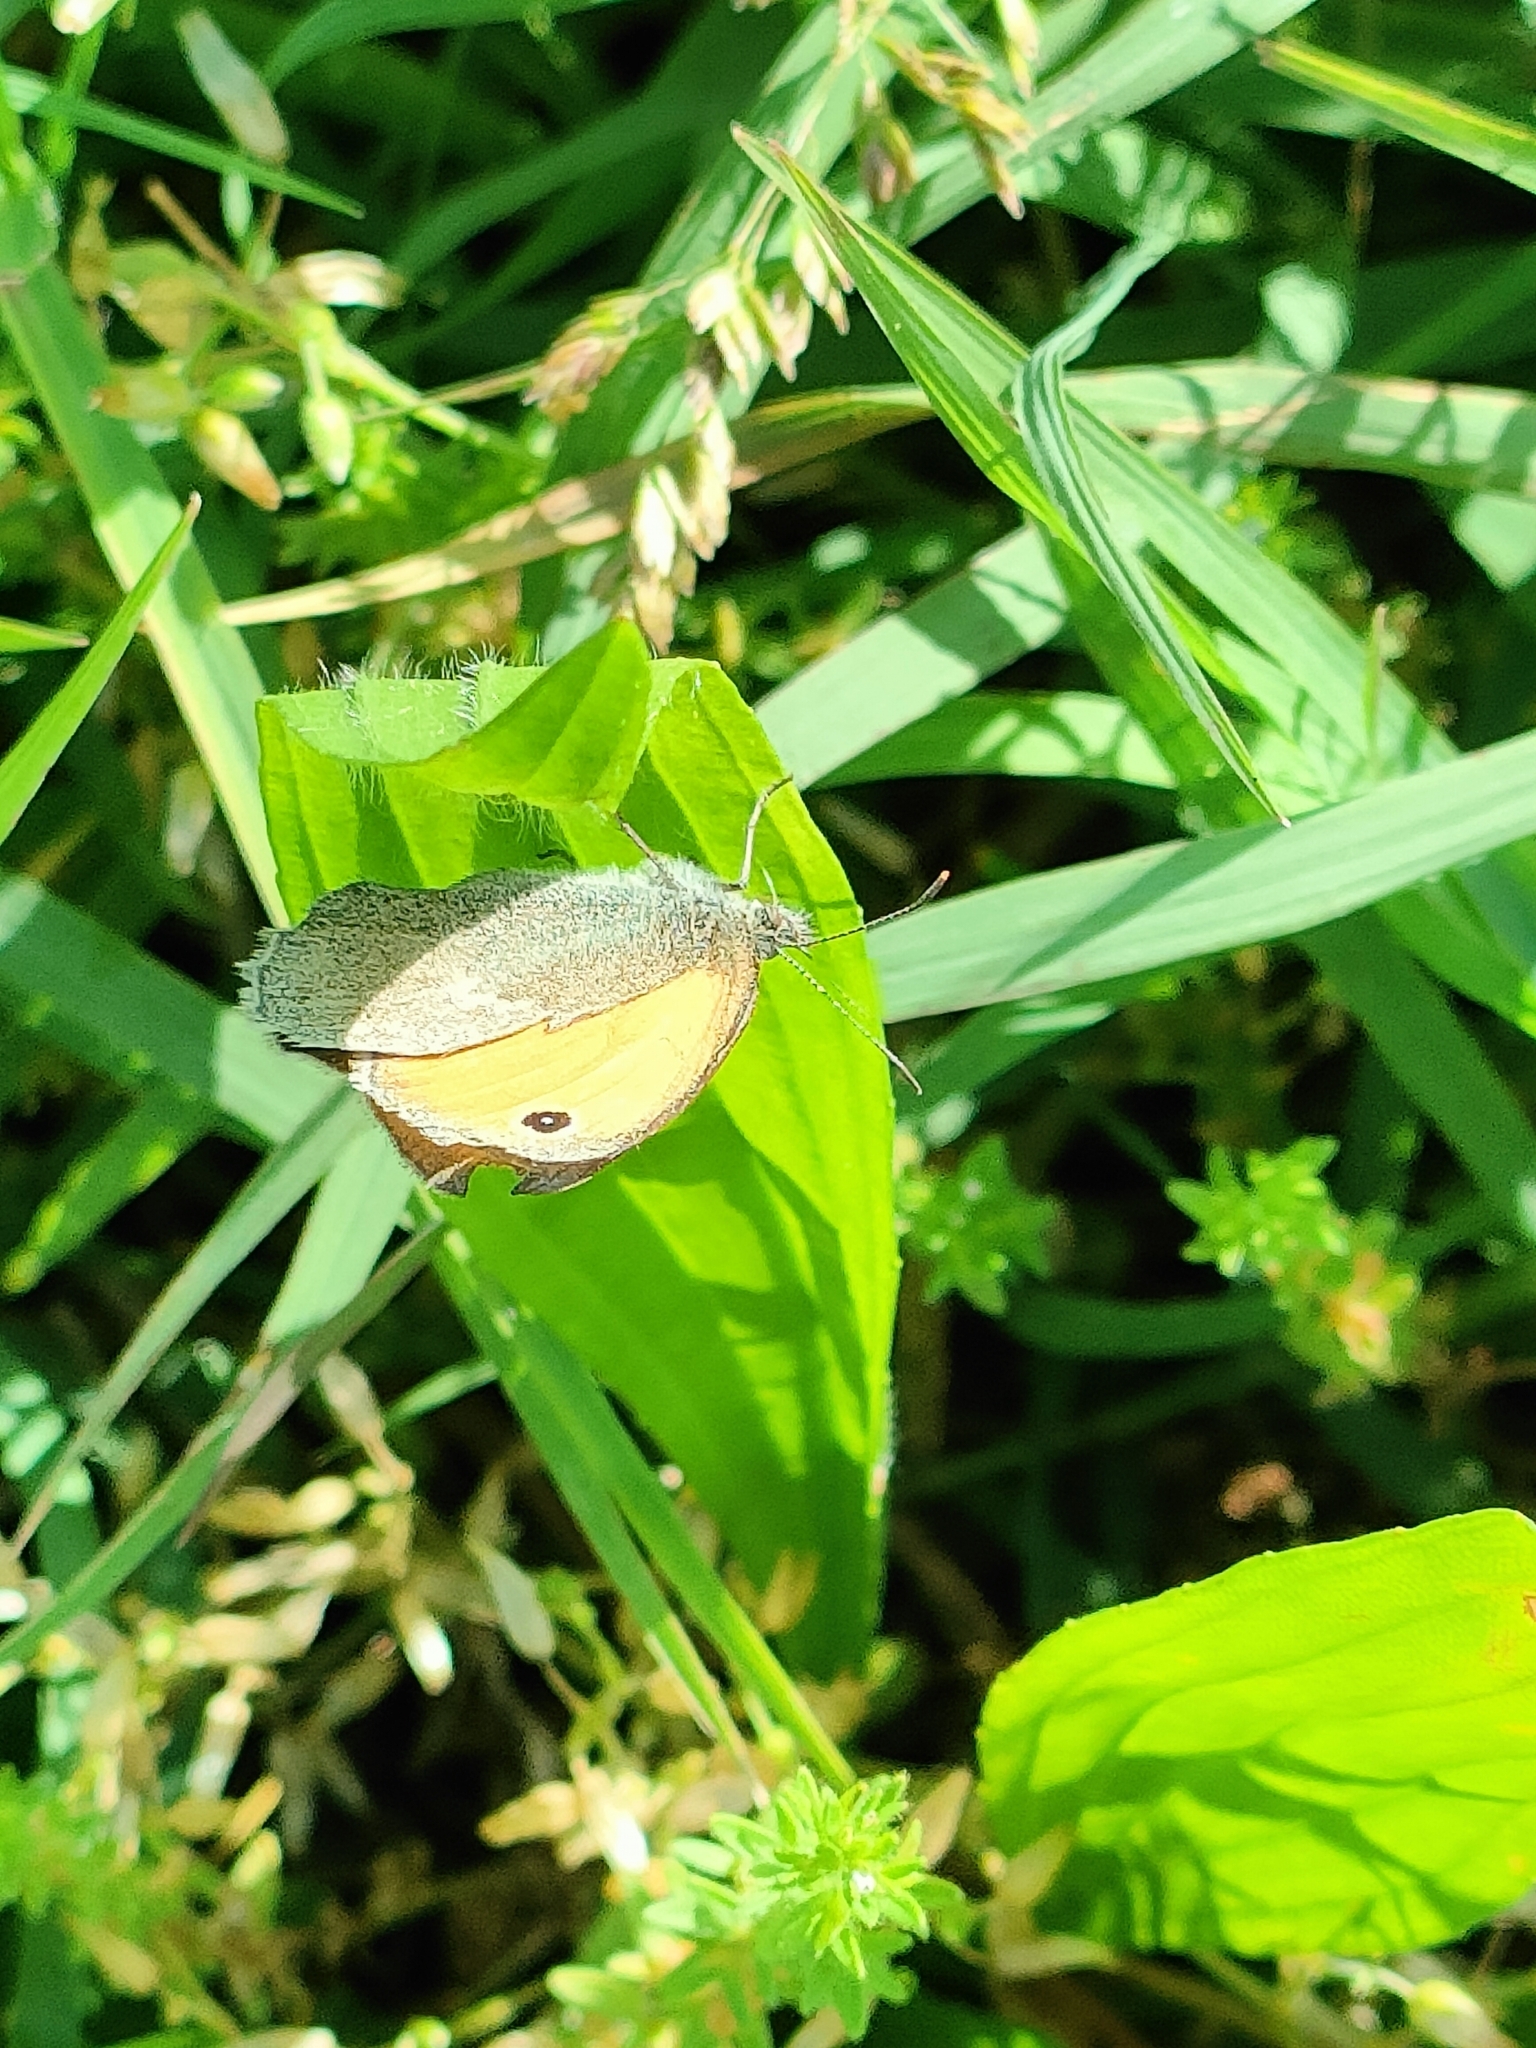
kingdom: Animalia
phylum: Arthropoda
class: Insecta
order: Lepidoptera
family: Nymphalidae
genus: Coenonympha
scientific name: Coenonympha pamphilus
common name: Small heath
